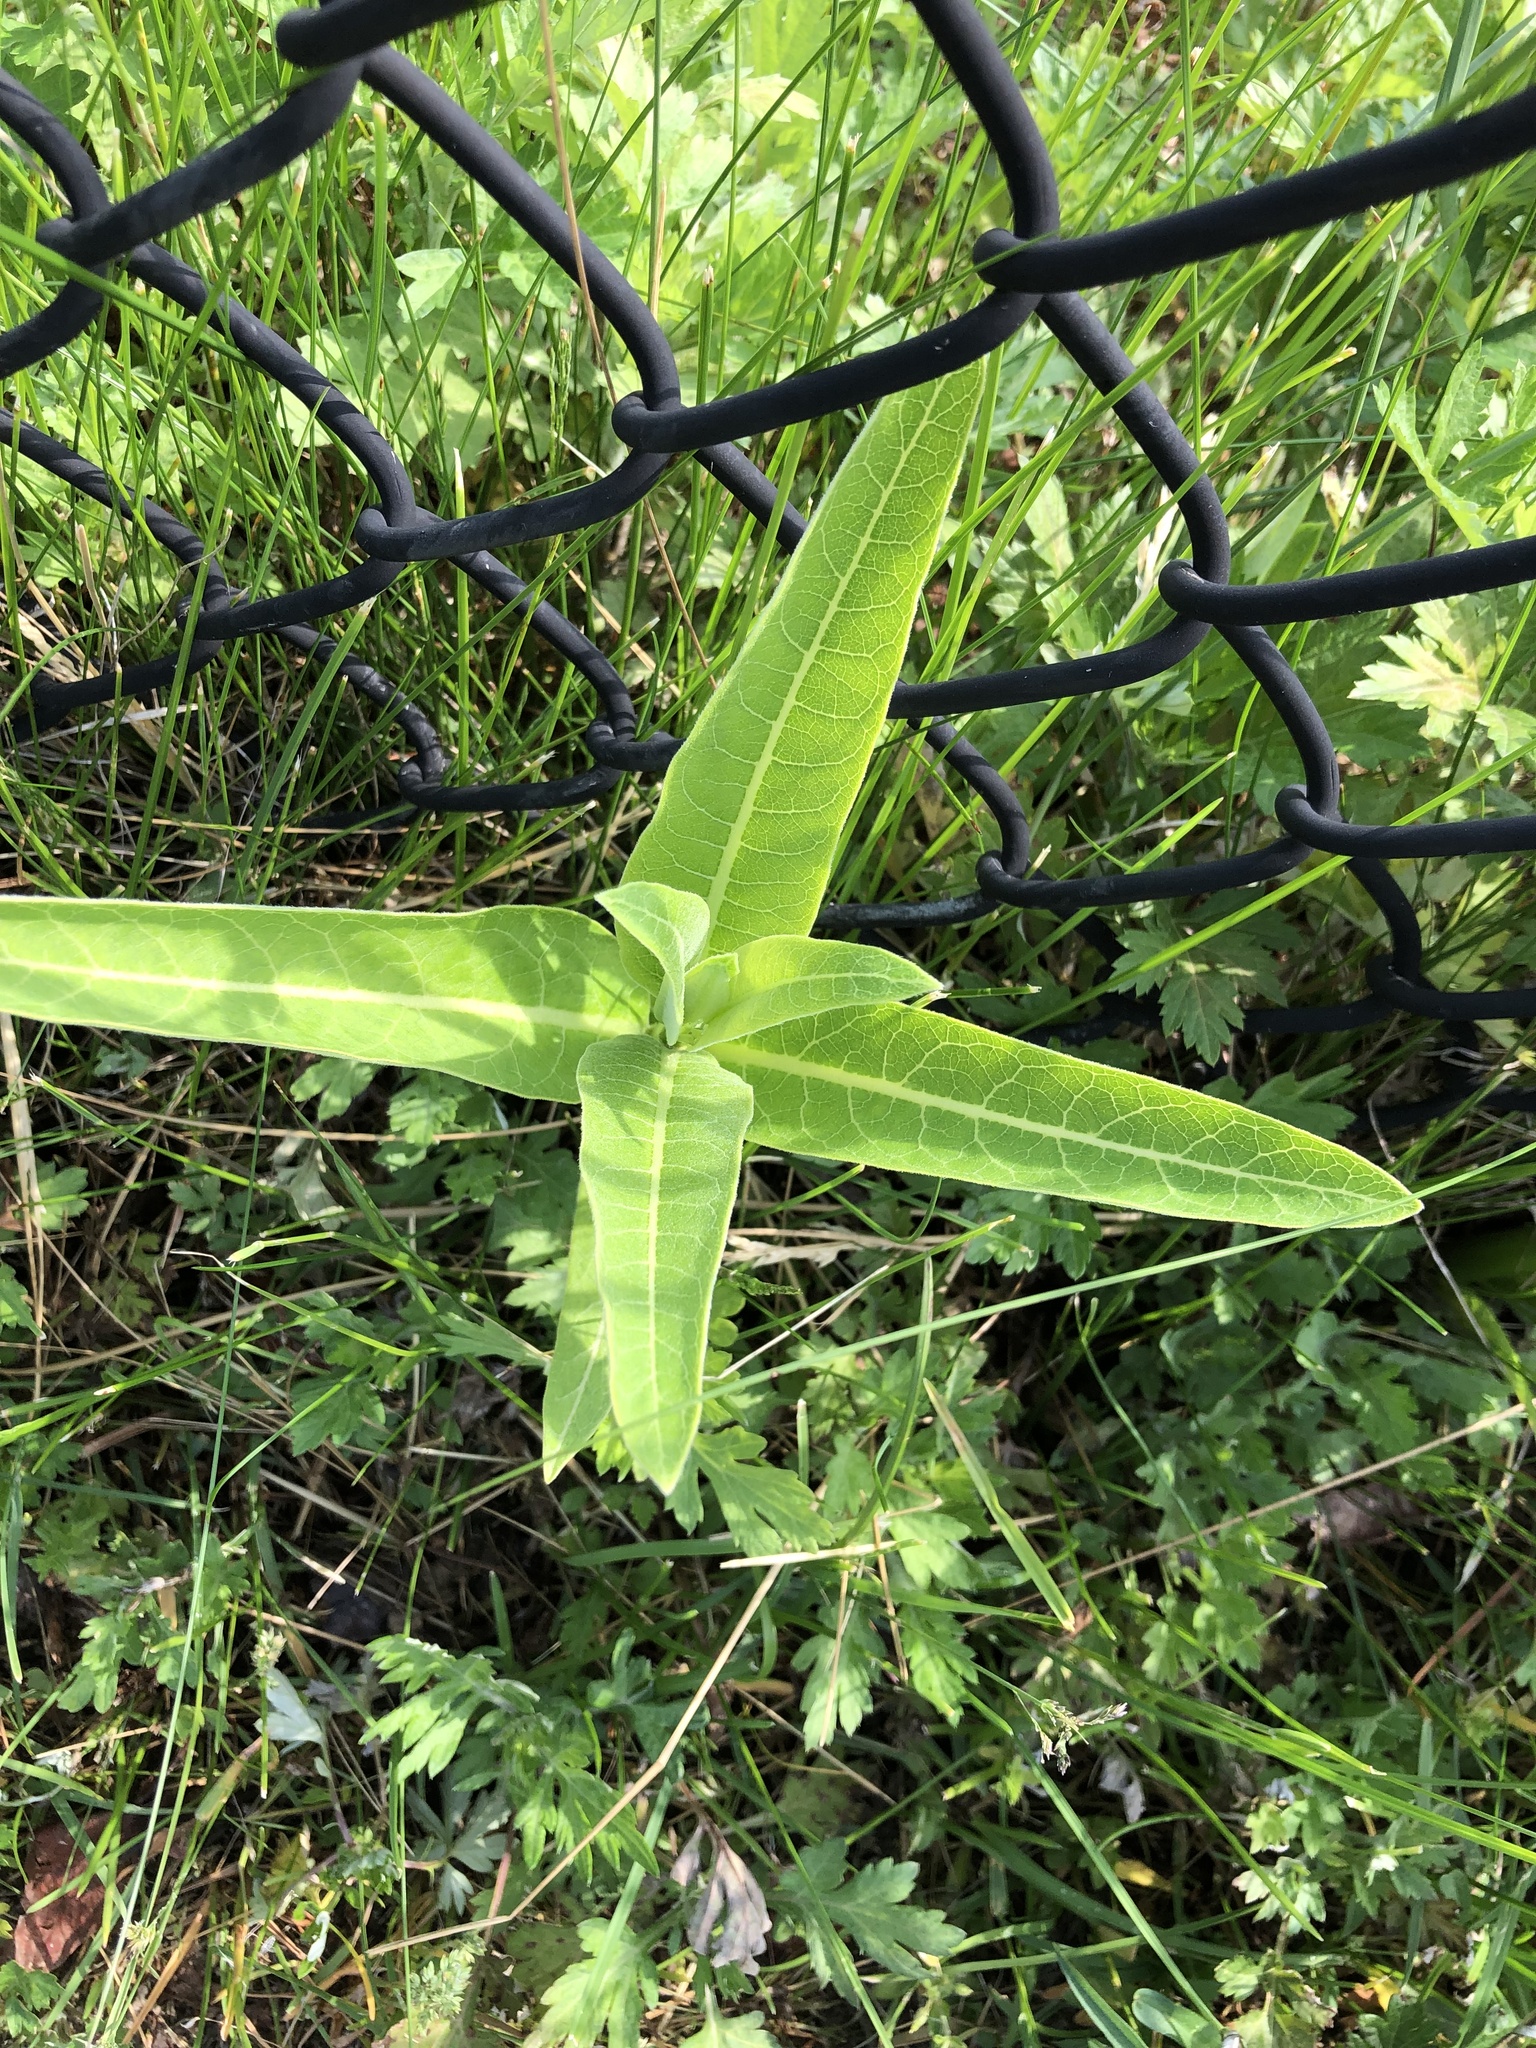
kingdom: Plantae
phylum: Tracheophyta
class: Magnoliopsida
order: Gentianales
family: Apocynaceae
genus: Asclepias
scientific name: Asclepias syriaca
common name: Common milkweed
